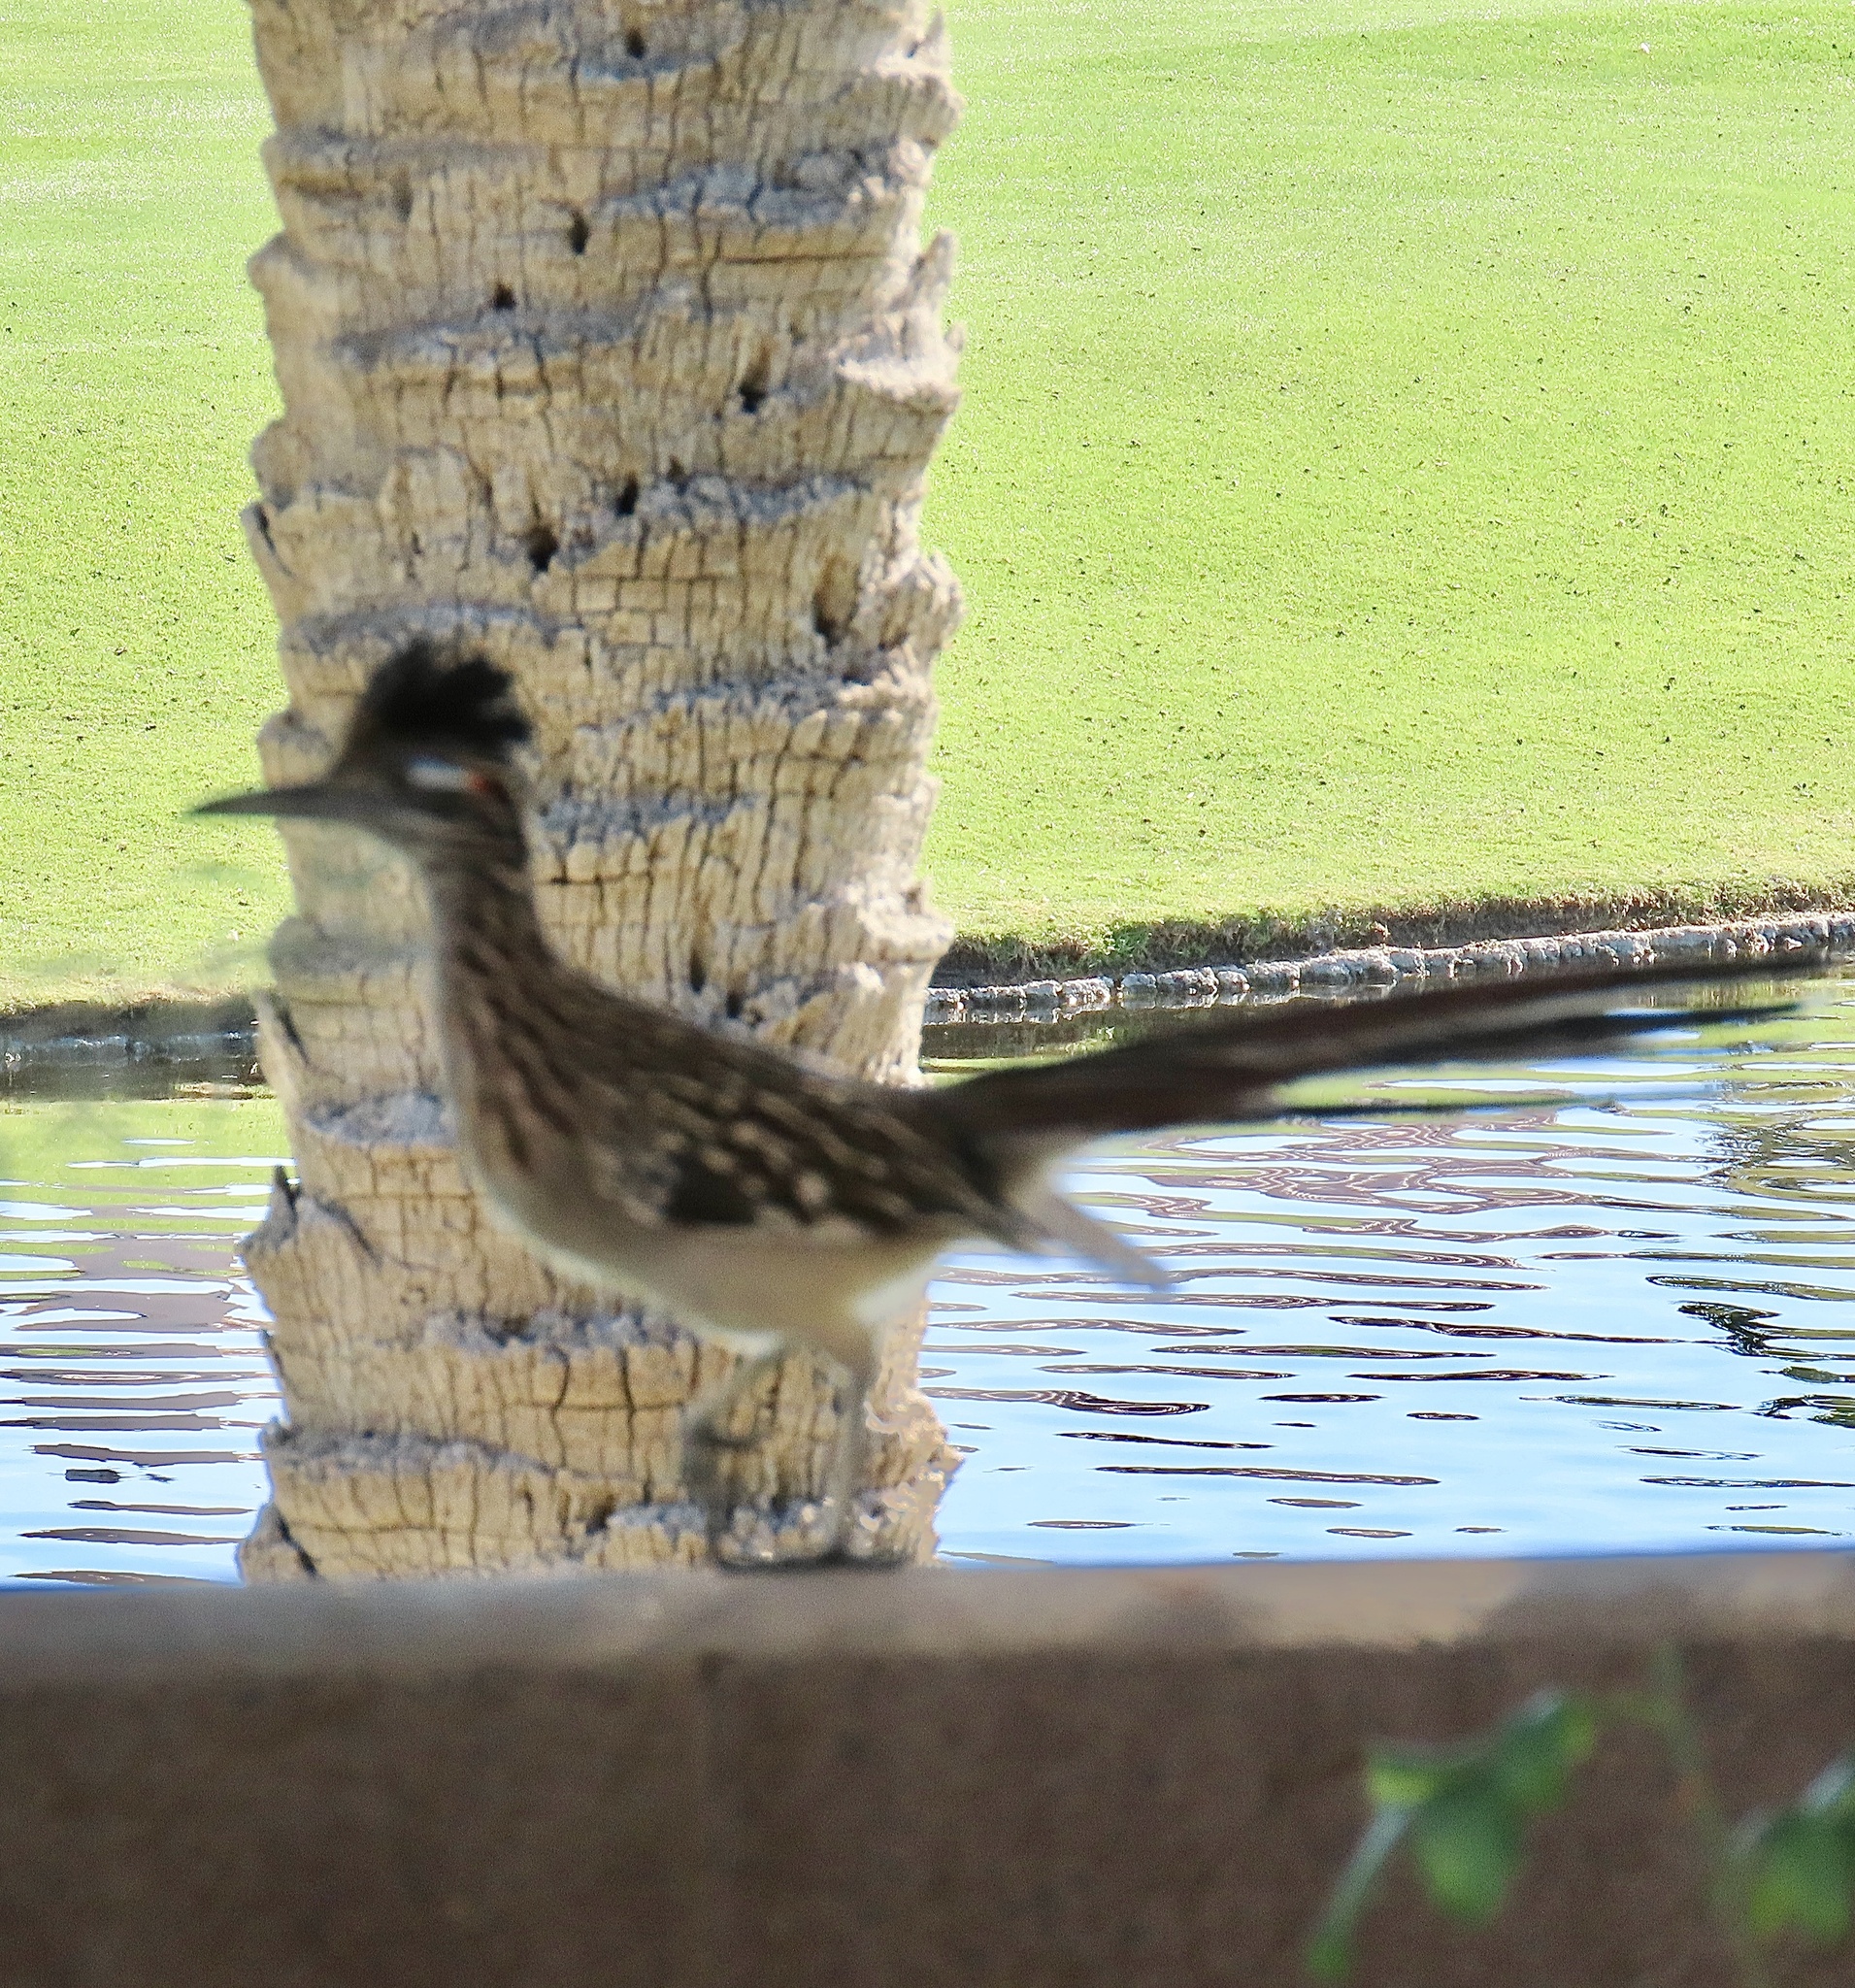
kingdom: Animalia
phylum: Chordata
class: Aves
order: Cuculiformes
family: Cuculidae
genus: Geococcyx
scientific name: Geococcyx californianus
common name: Greater roadrunner
